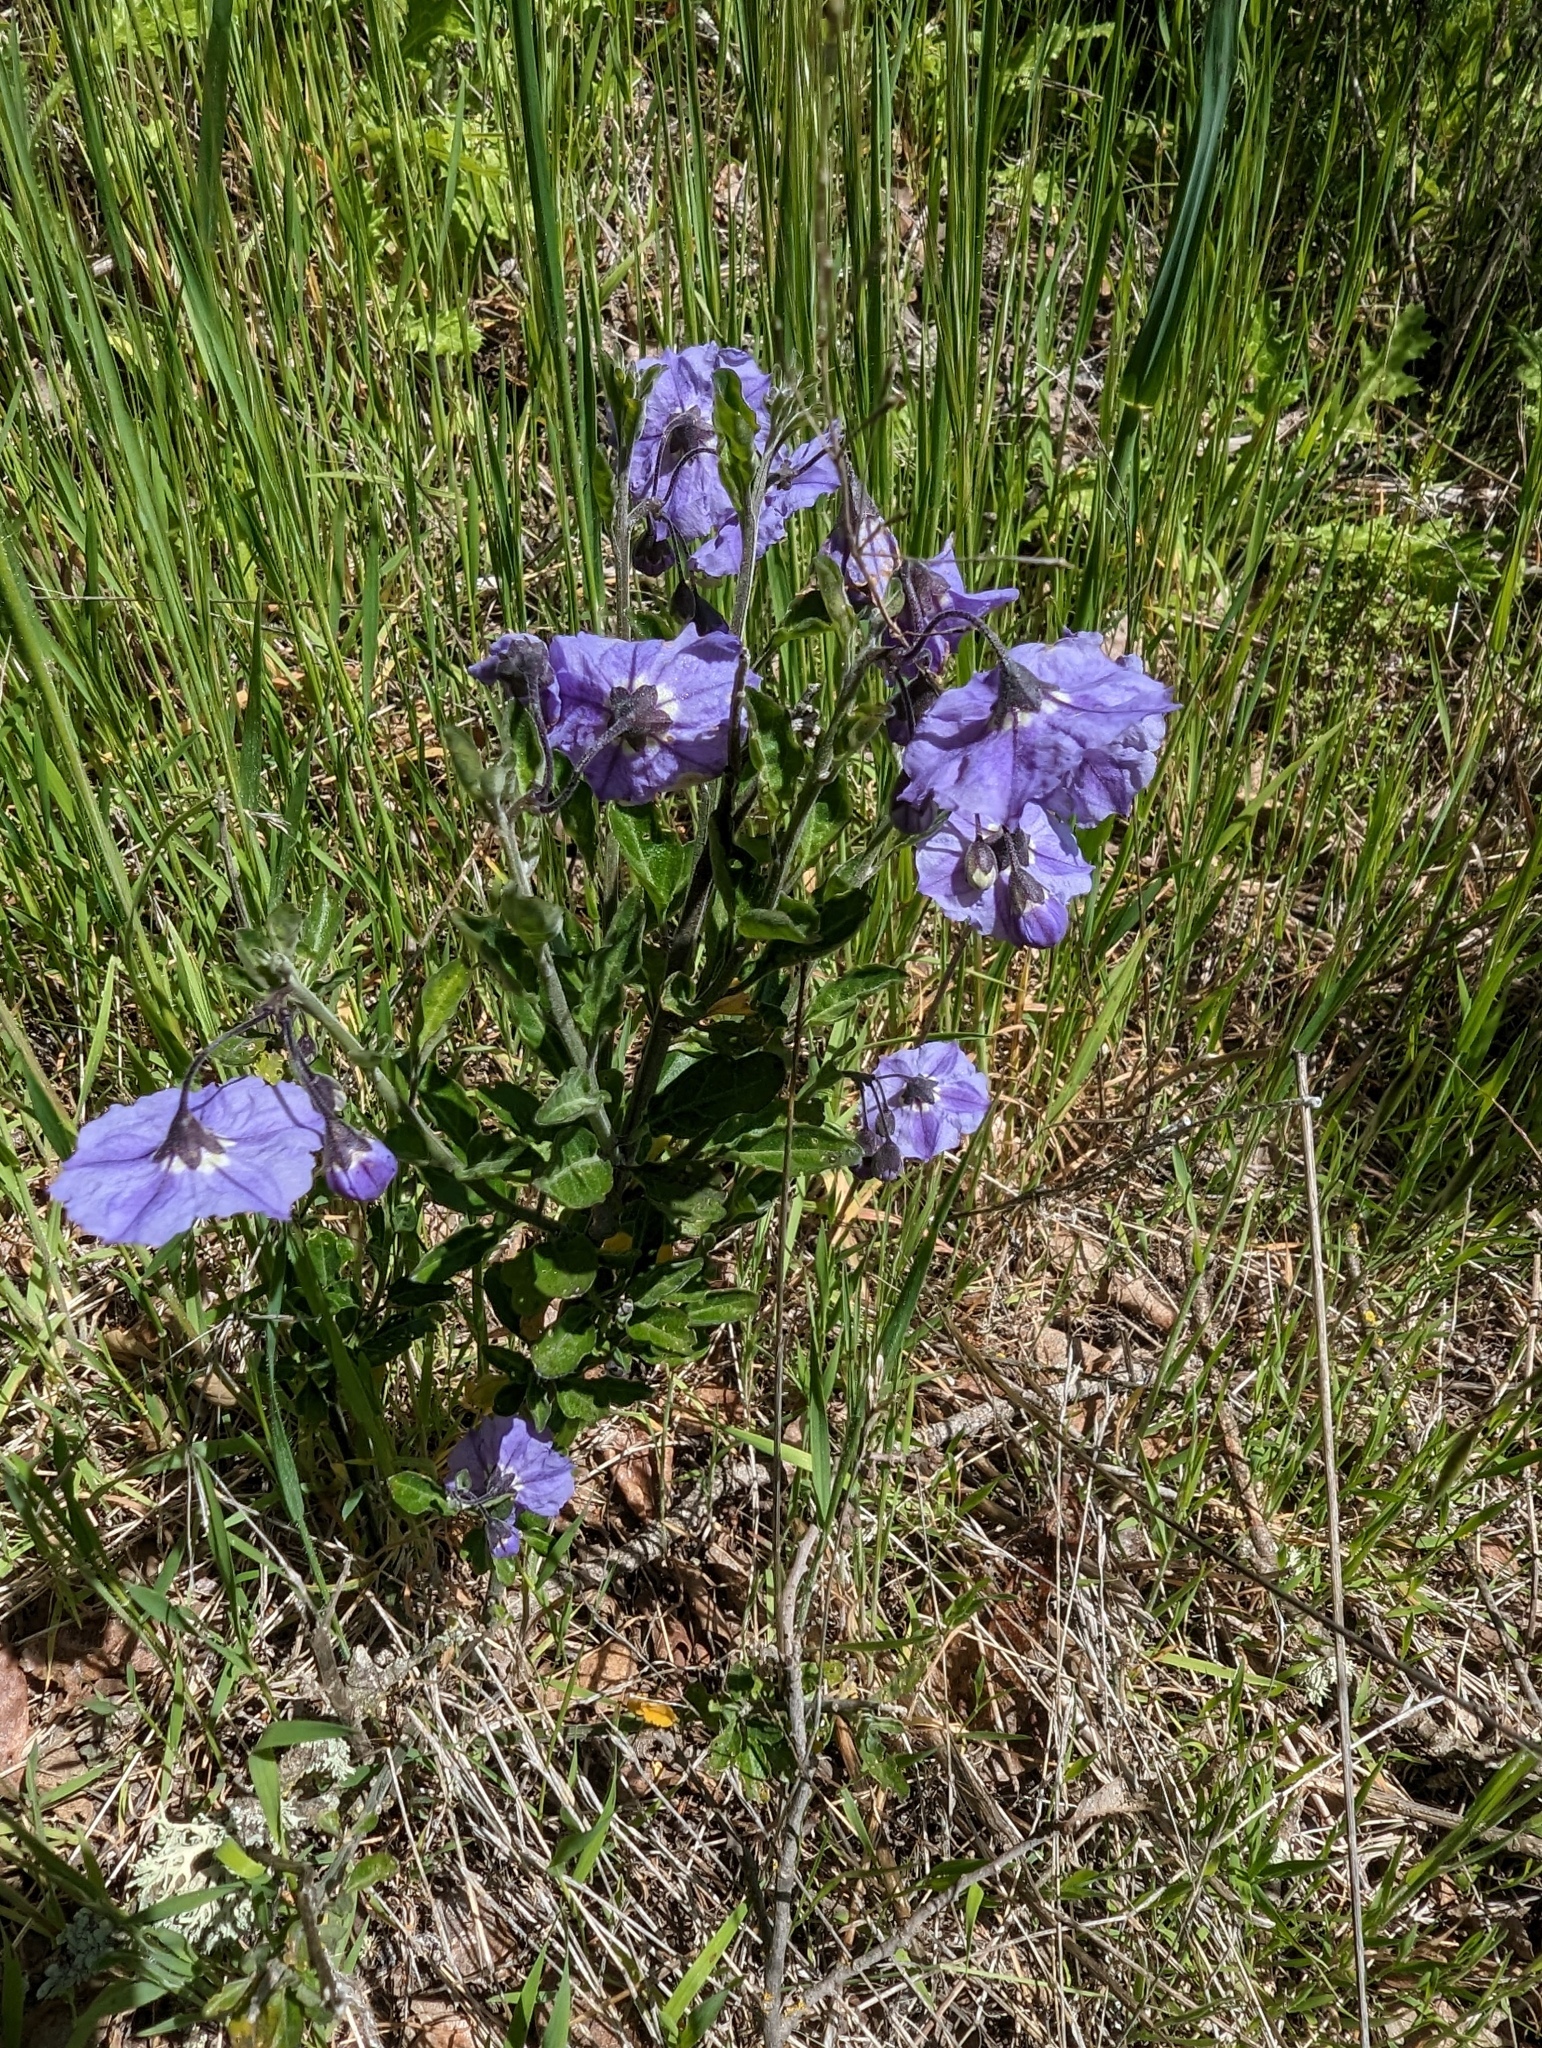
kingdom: Plantae
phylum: Tracheophyta
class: Magnoliopsida
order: Solanales
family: Solanaceae
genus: Solanum
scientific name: Solanum umbelliferum
